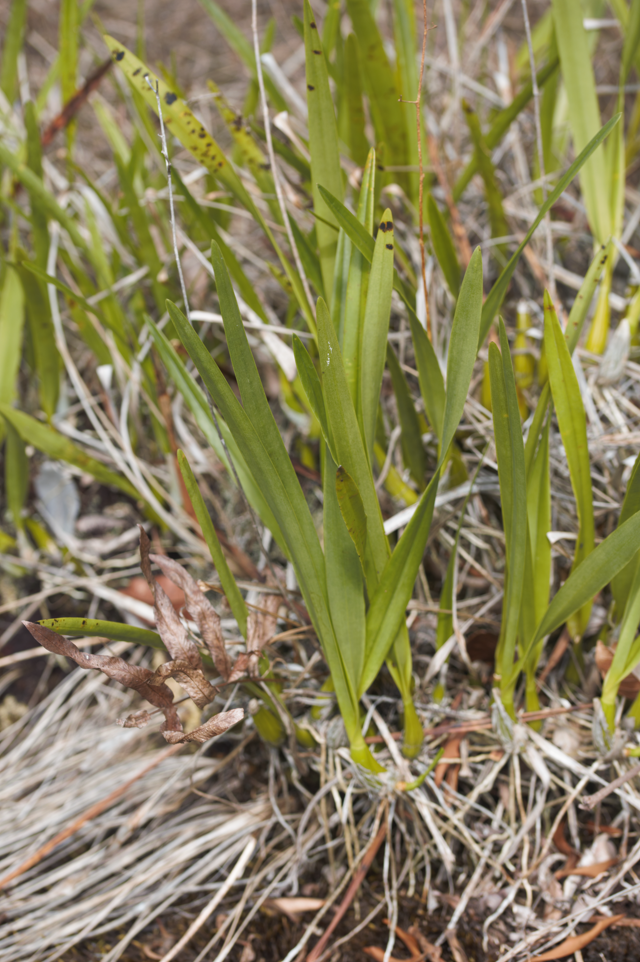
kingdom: Plantae
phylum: Tracheophyta
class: Liliopsida
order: Asparagales
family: Orchidaceae
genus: Encyclia
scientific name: Encyclia granitica
